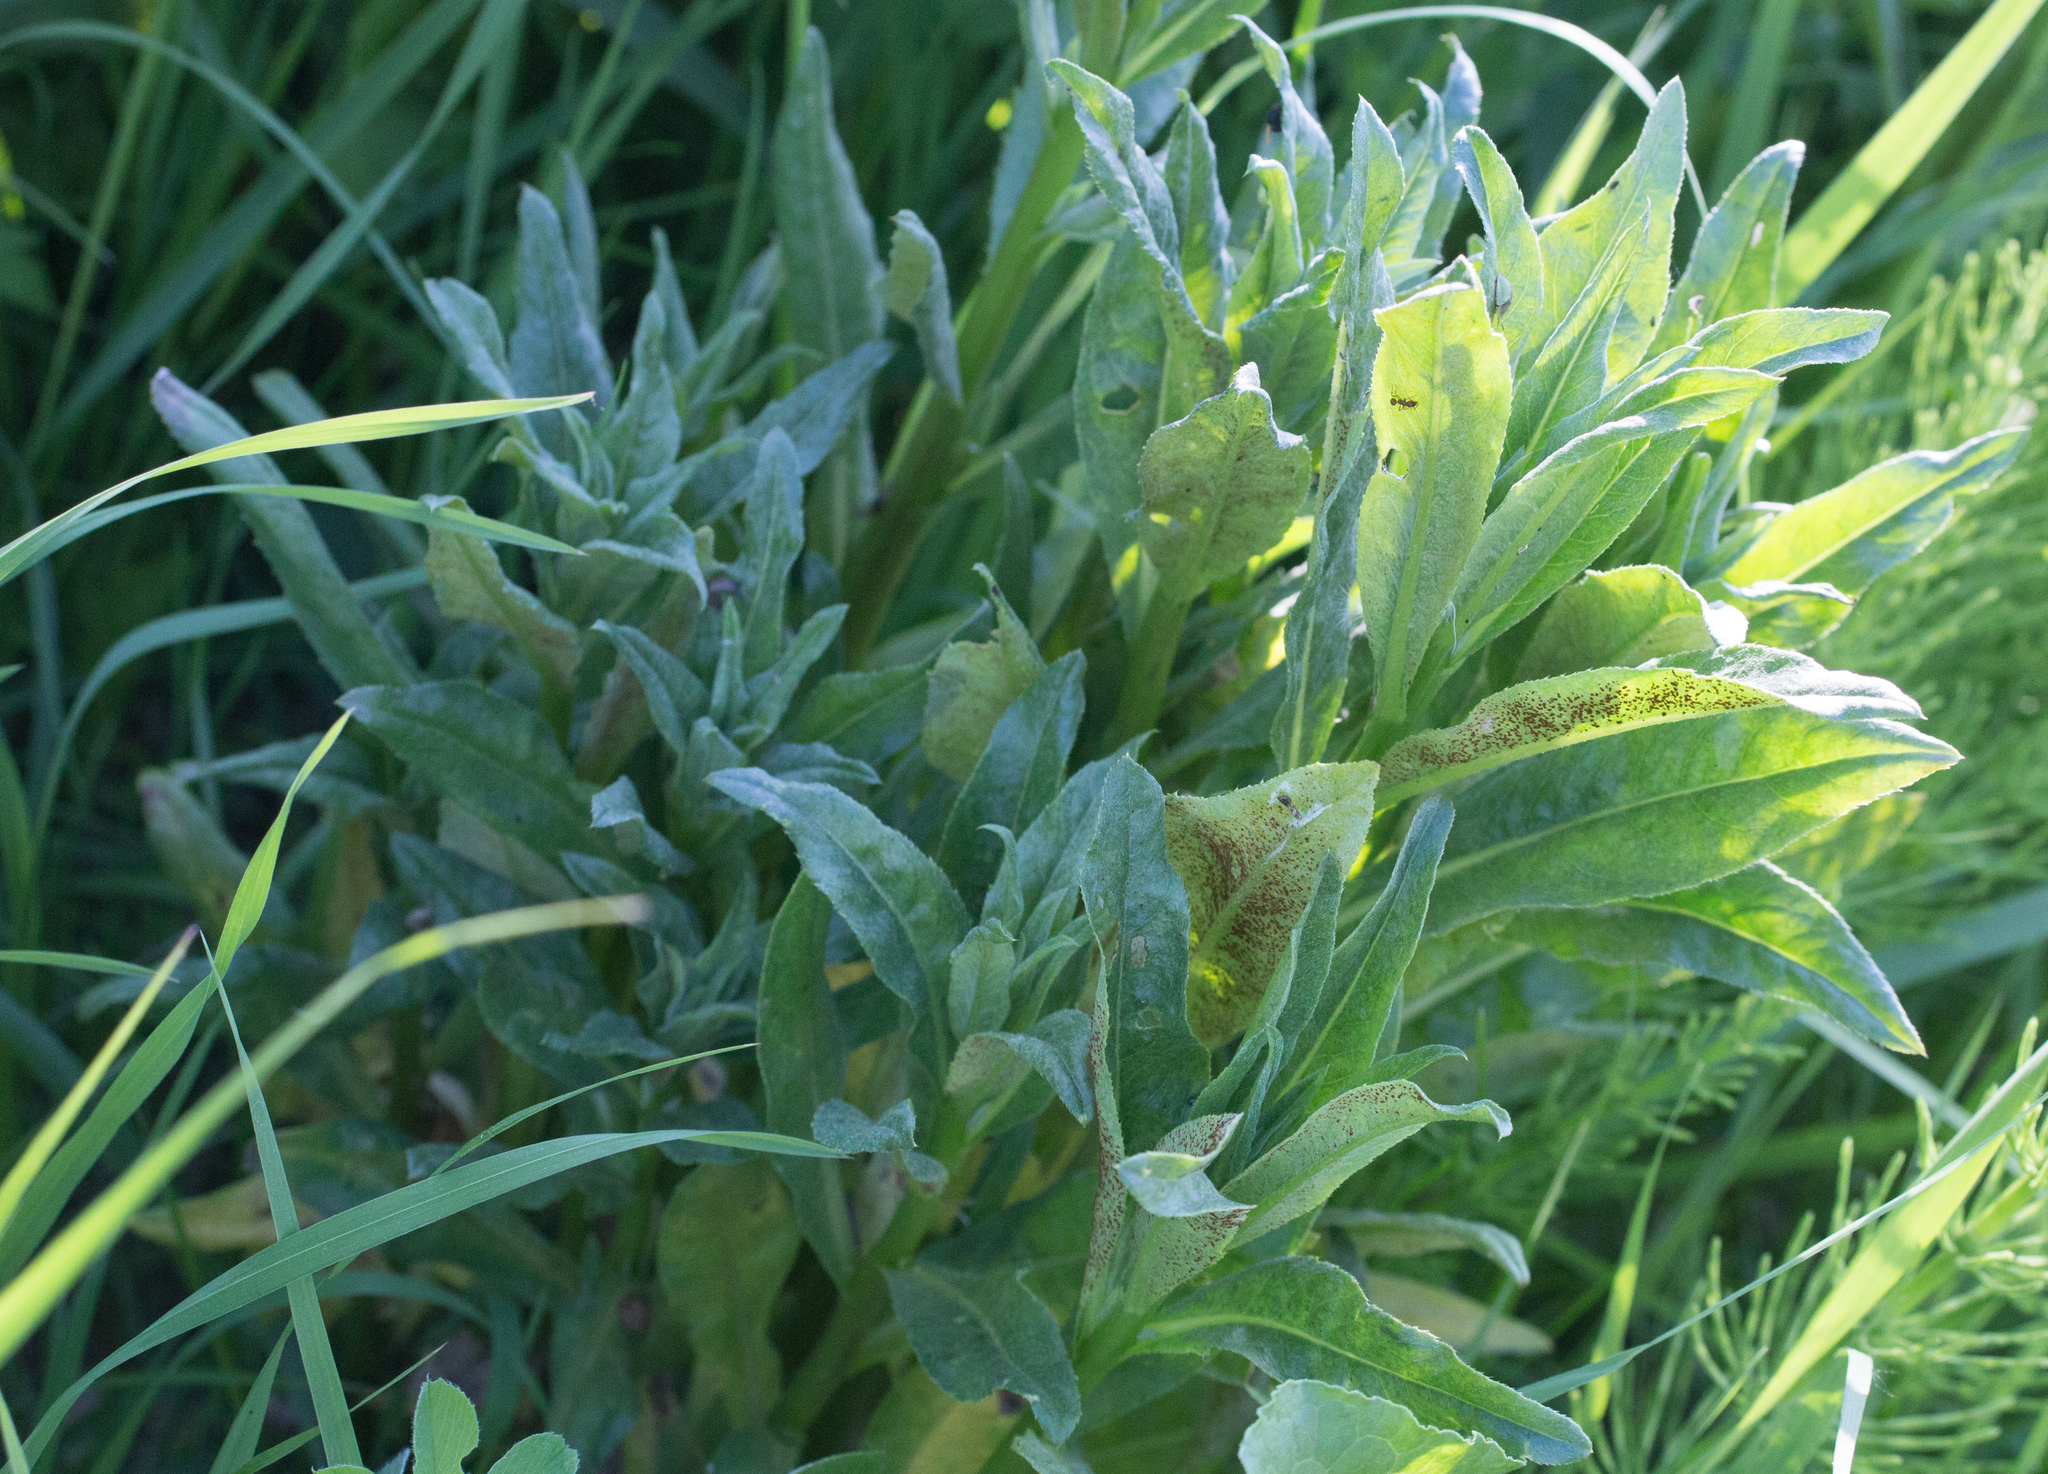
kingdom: Plantae
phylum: Tracheophyta
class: Magnoliopsida
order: Asterales
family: Asteraceae
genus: Cirsium
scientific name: Cirsium arvense
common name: Creeping thistle
